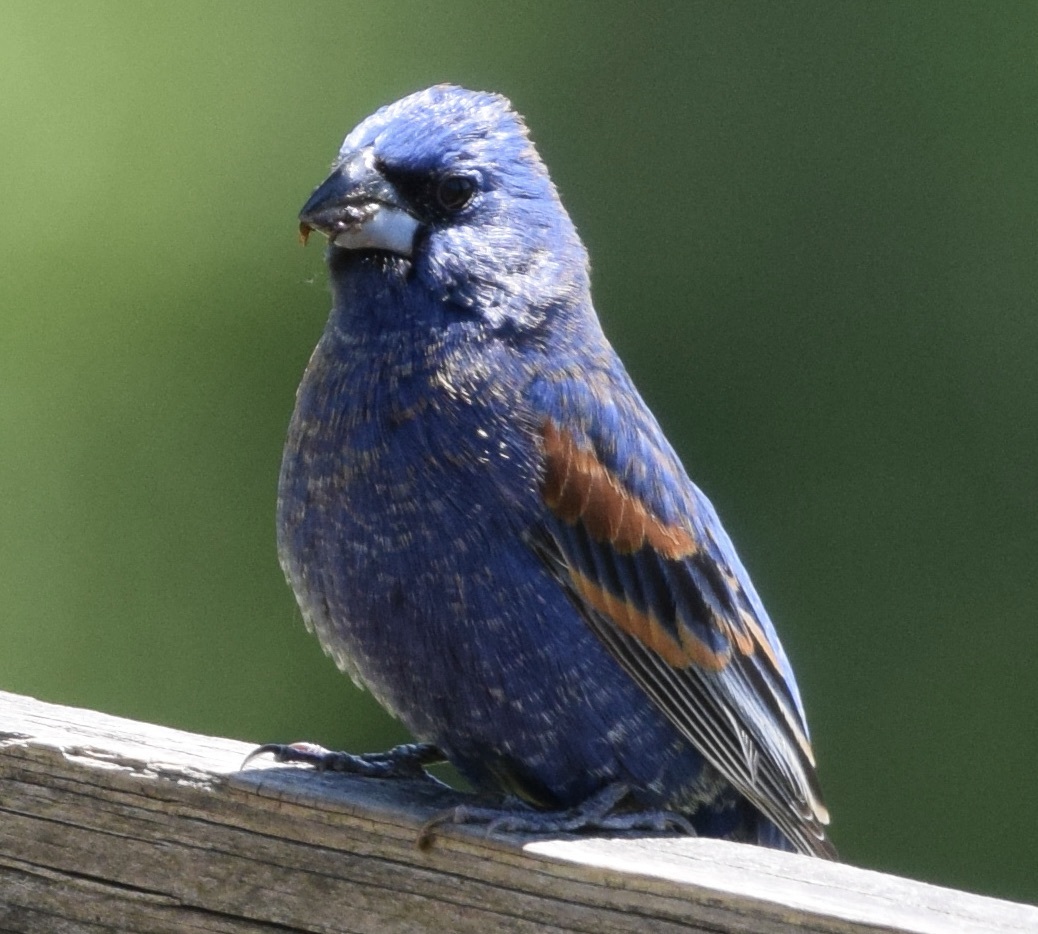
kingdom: Animalia
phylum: Chordata
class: Aves
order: Passeriformes
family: Cardinalidae
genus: Passerina
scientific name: Passerina caerulea
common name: Blue grosbeak
